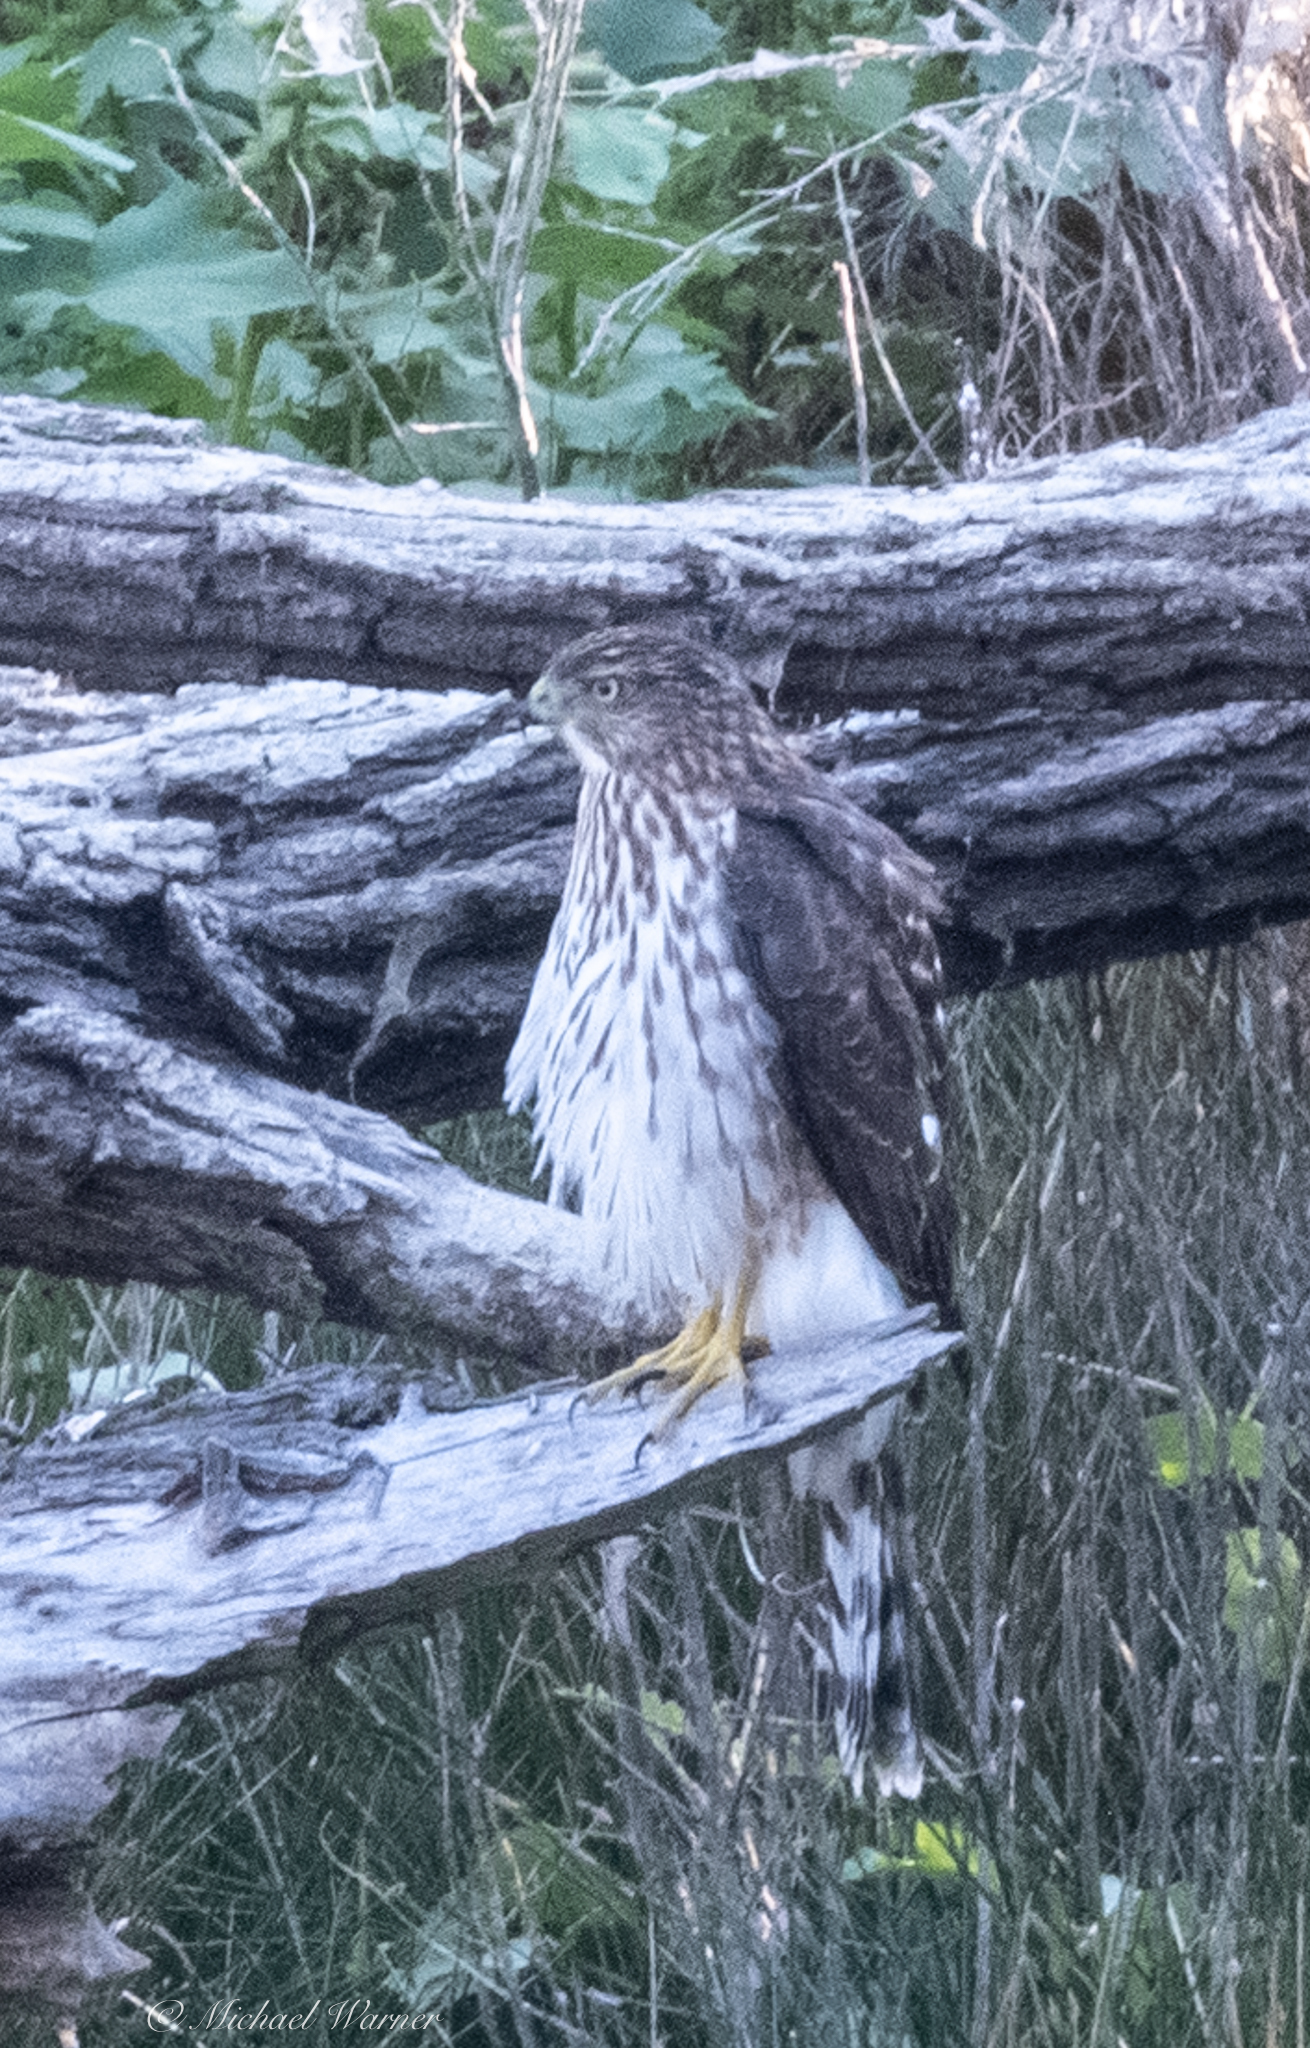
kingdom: Animalia
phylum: Chordata
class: Aves
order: Accipitriformes
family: Accipitridae
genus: Accipiter
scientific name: Accipiter cooperii
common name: Cooper's hawk
